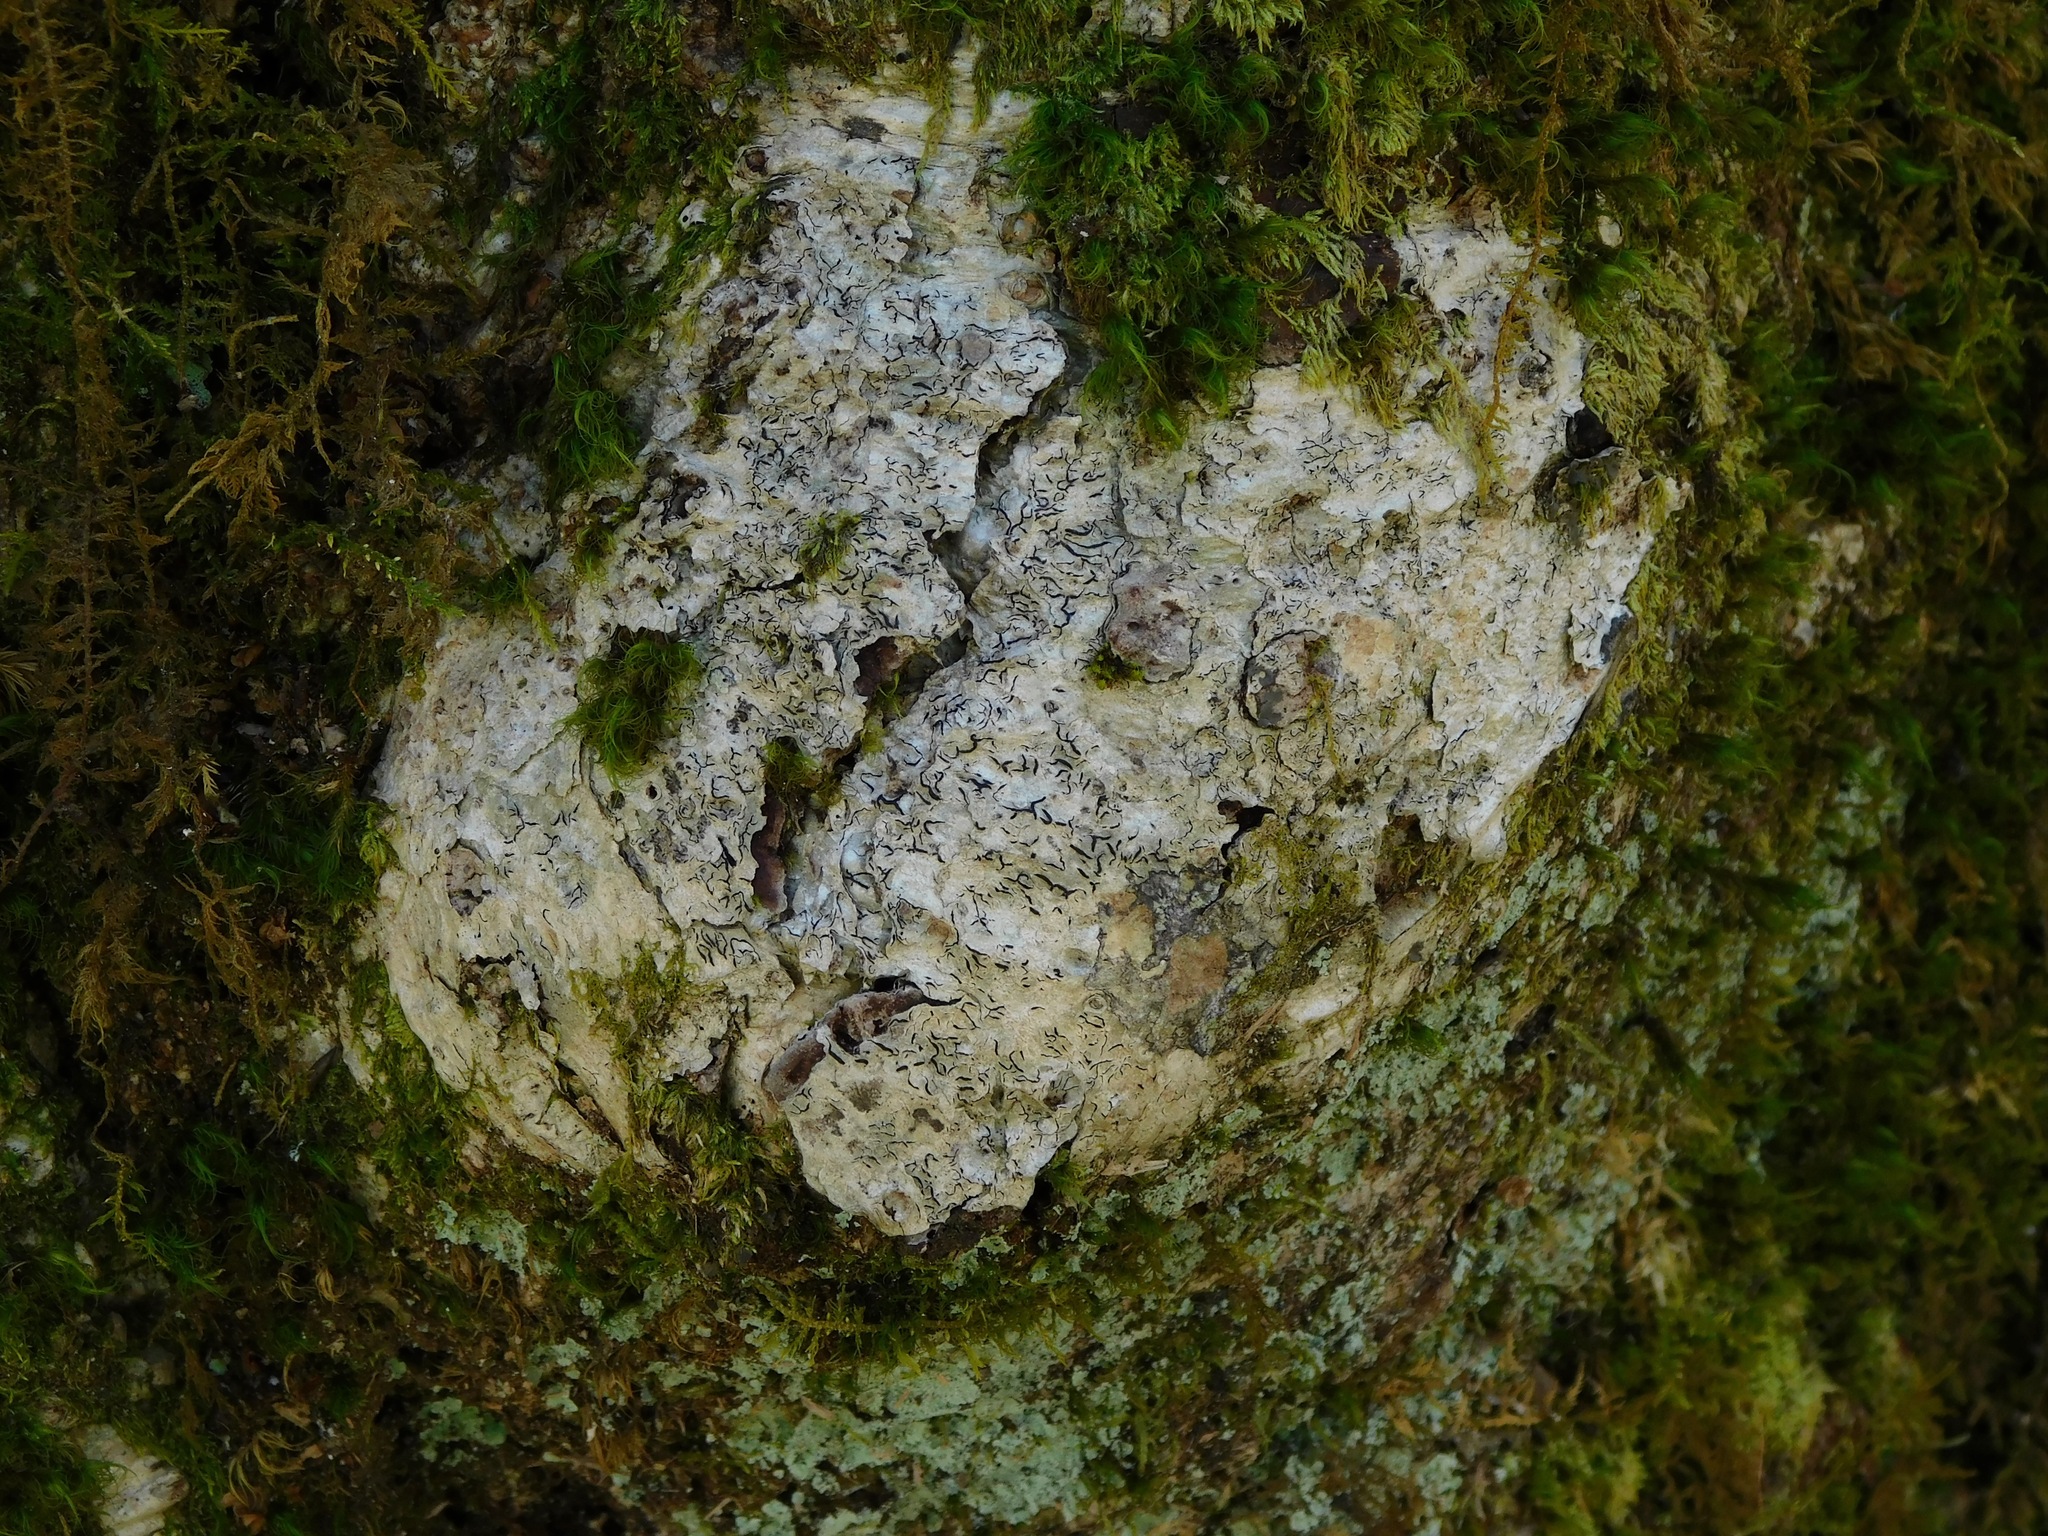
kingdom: Fungi
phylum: Ascomycota
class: Lecanoromycetes
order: Ostropales
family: Graphidaceae
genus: Graphis
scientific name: Graphis scripta
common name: Script lichen
